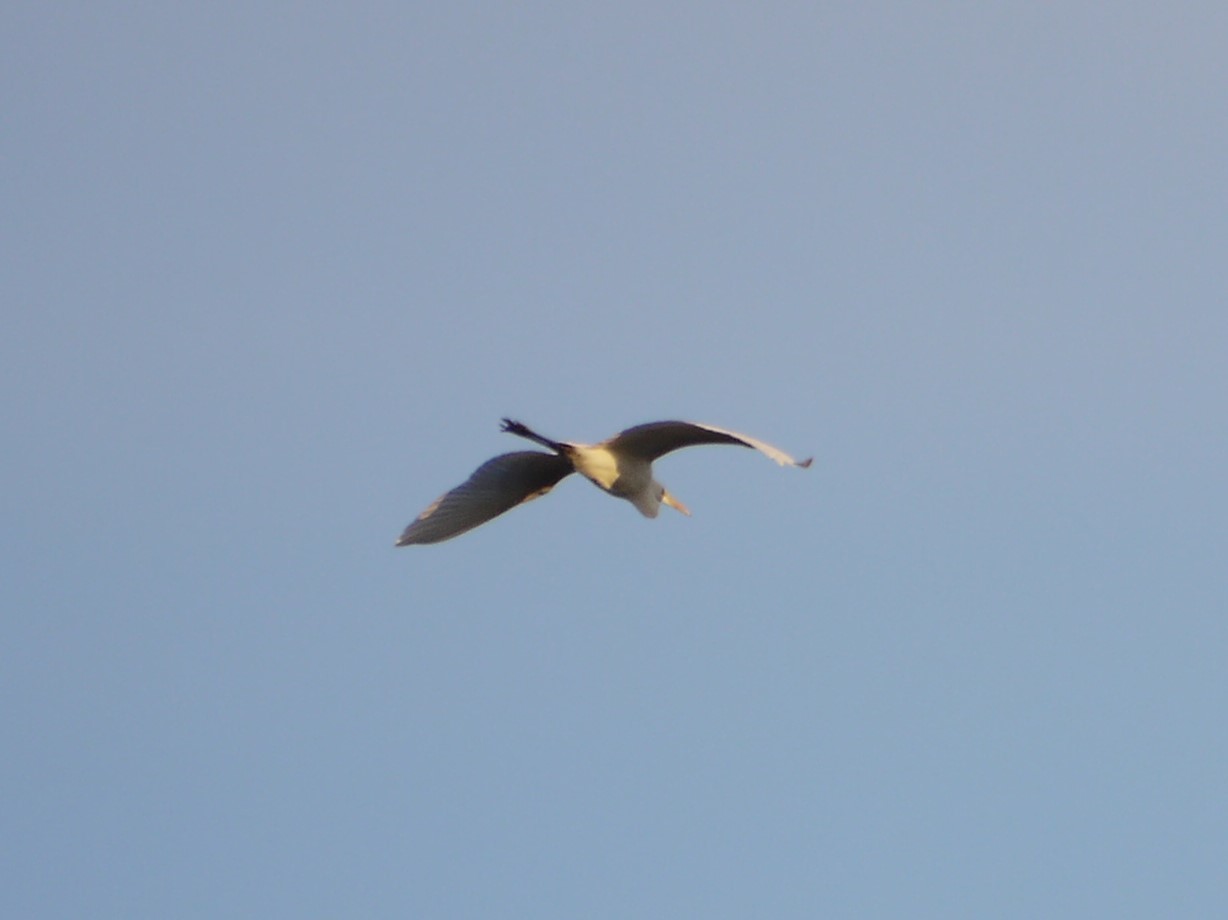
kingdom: Animalia
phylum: Chordata
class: Aves
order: Pelecaniformes
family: Ardeidae
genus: Ardea
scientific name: Ardea alba
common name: Great egret
